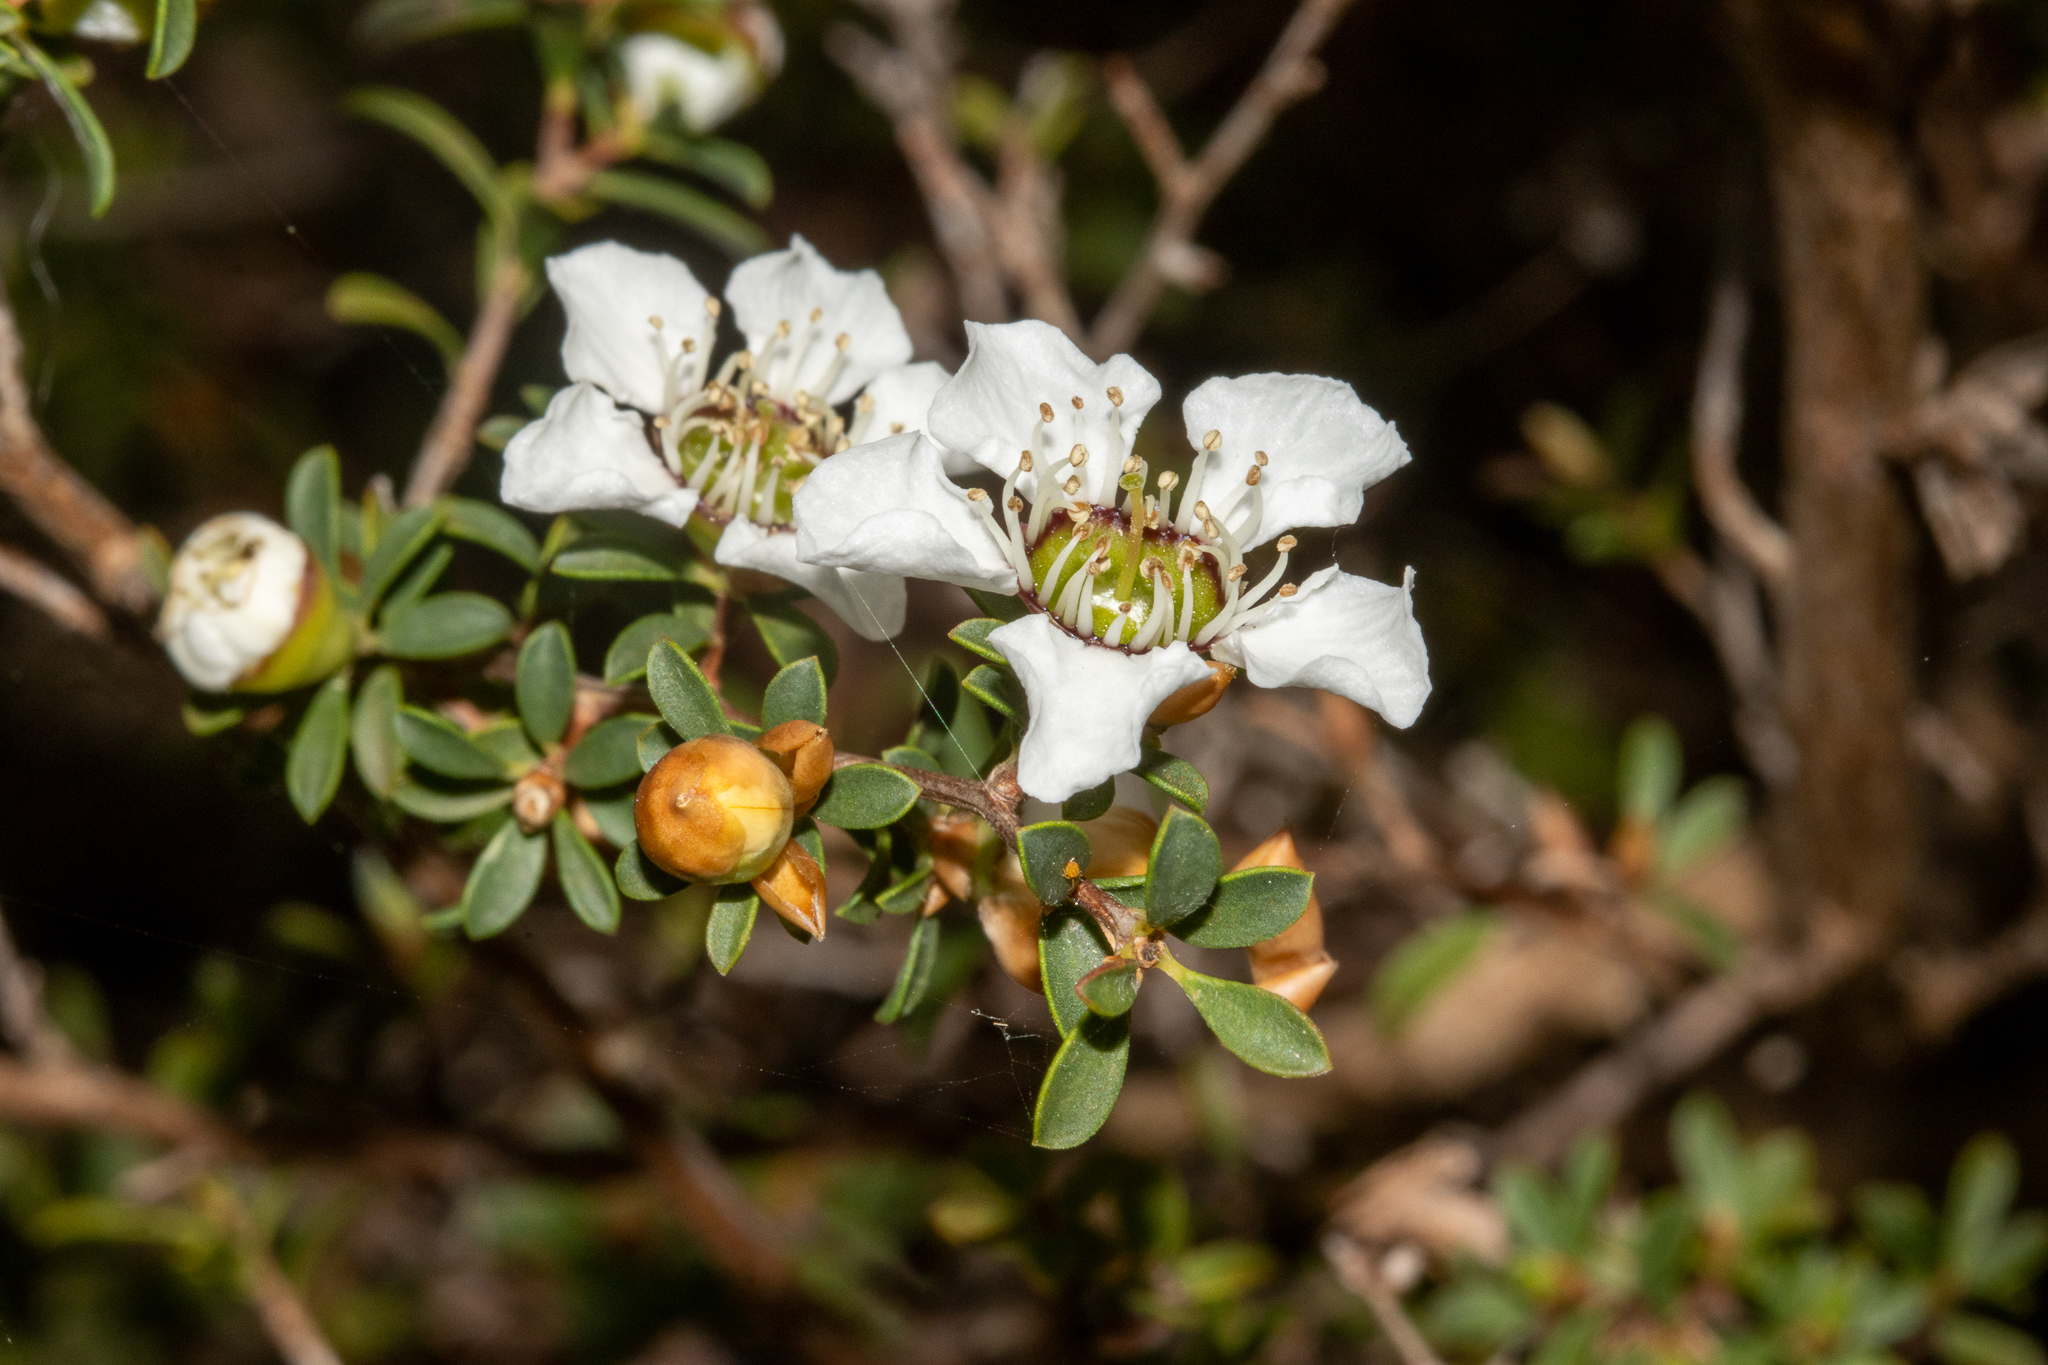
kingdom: Plantae
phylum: Tracheophyta
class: Magnoliopsida
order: Myrtales
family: Myrtaceae
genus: Leptospermum
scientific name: Leptospermum myrsinoides
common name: Heath teatree
